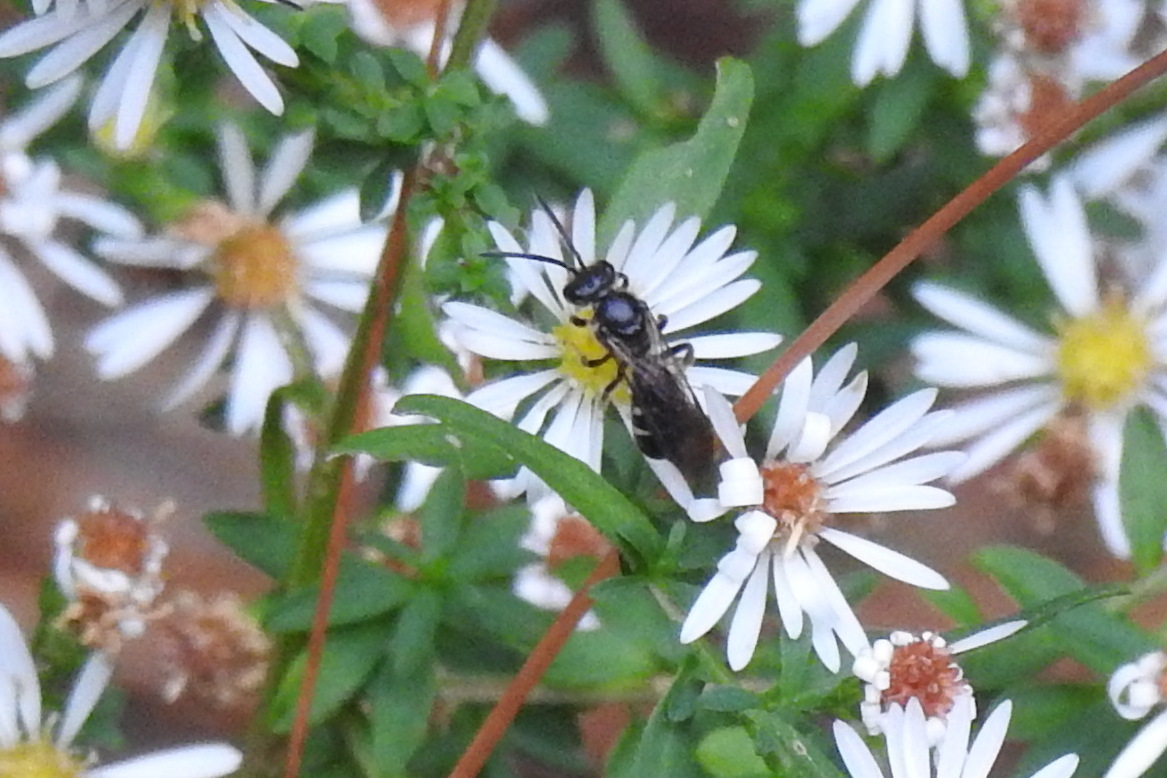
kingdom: Animalia
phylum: Arthropoda
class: Insecta
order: Hymenoptera
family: Halictidae
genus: Lasioglossum
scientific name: Lasioglossum fuscipenne
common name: Brown-winged sweat bee
